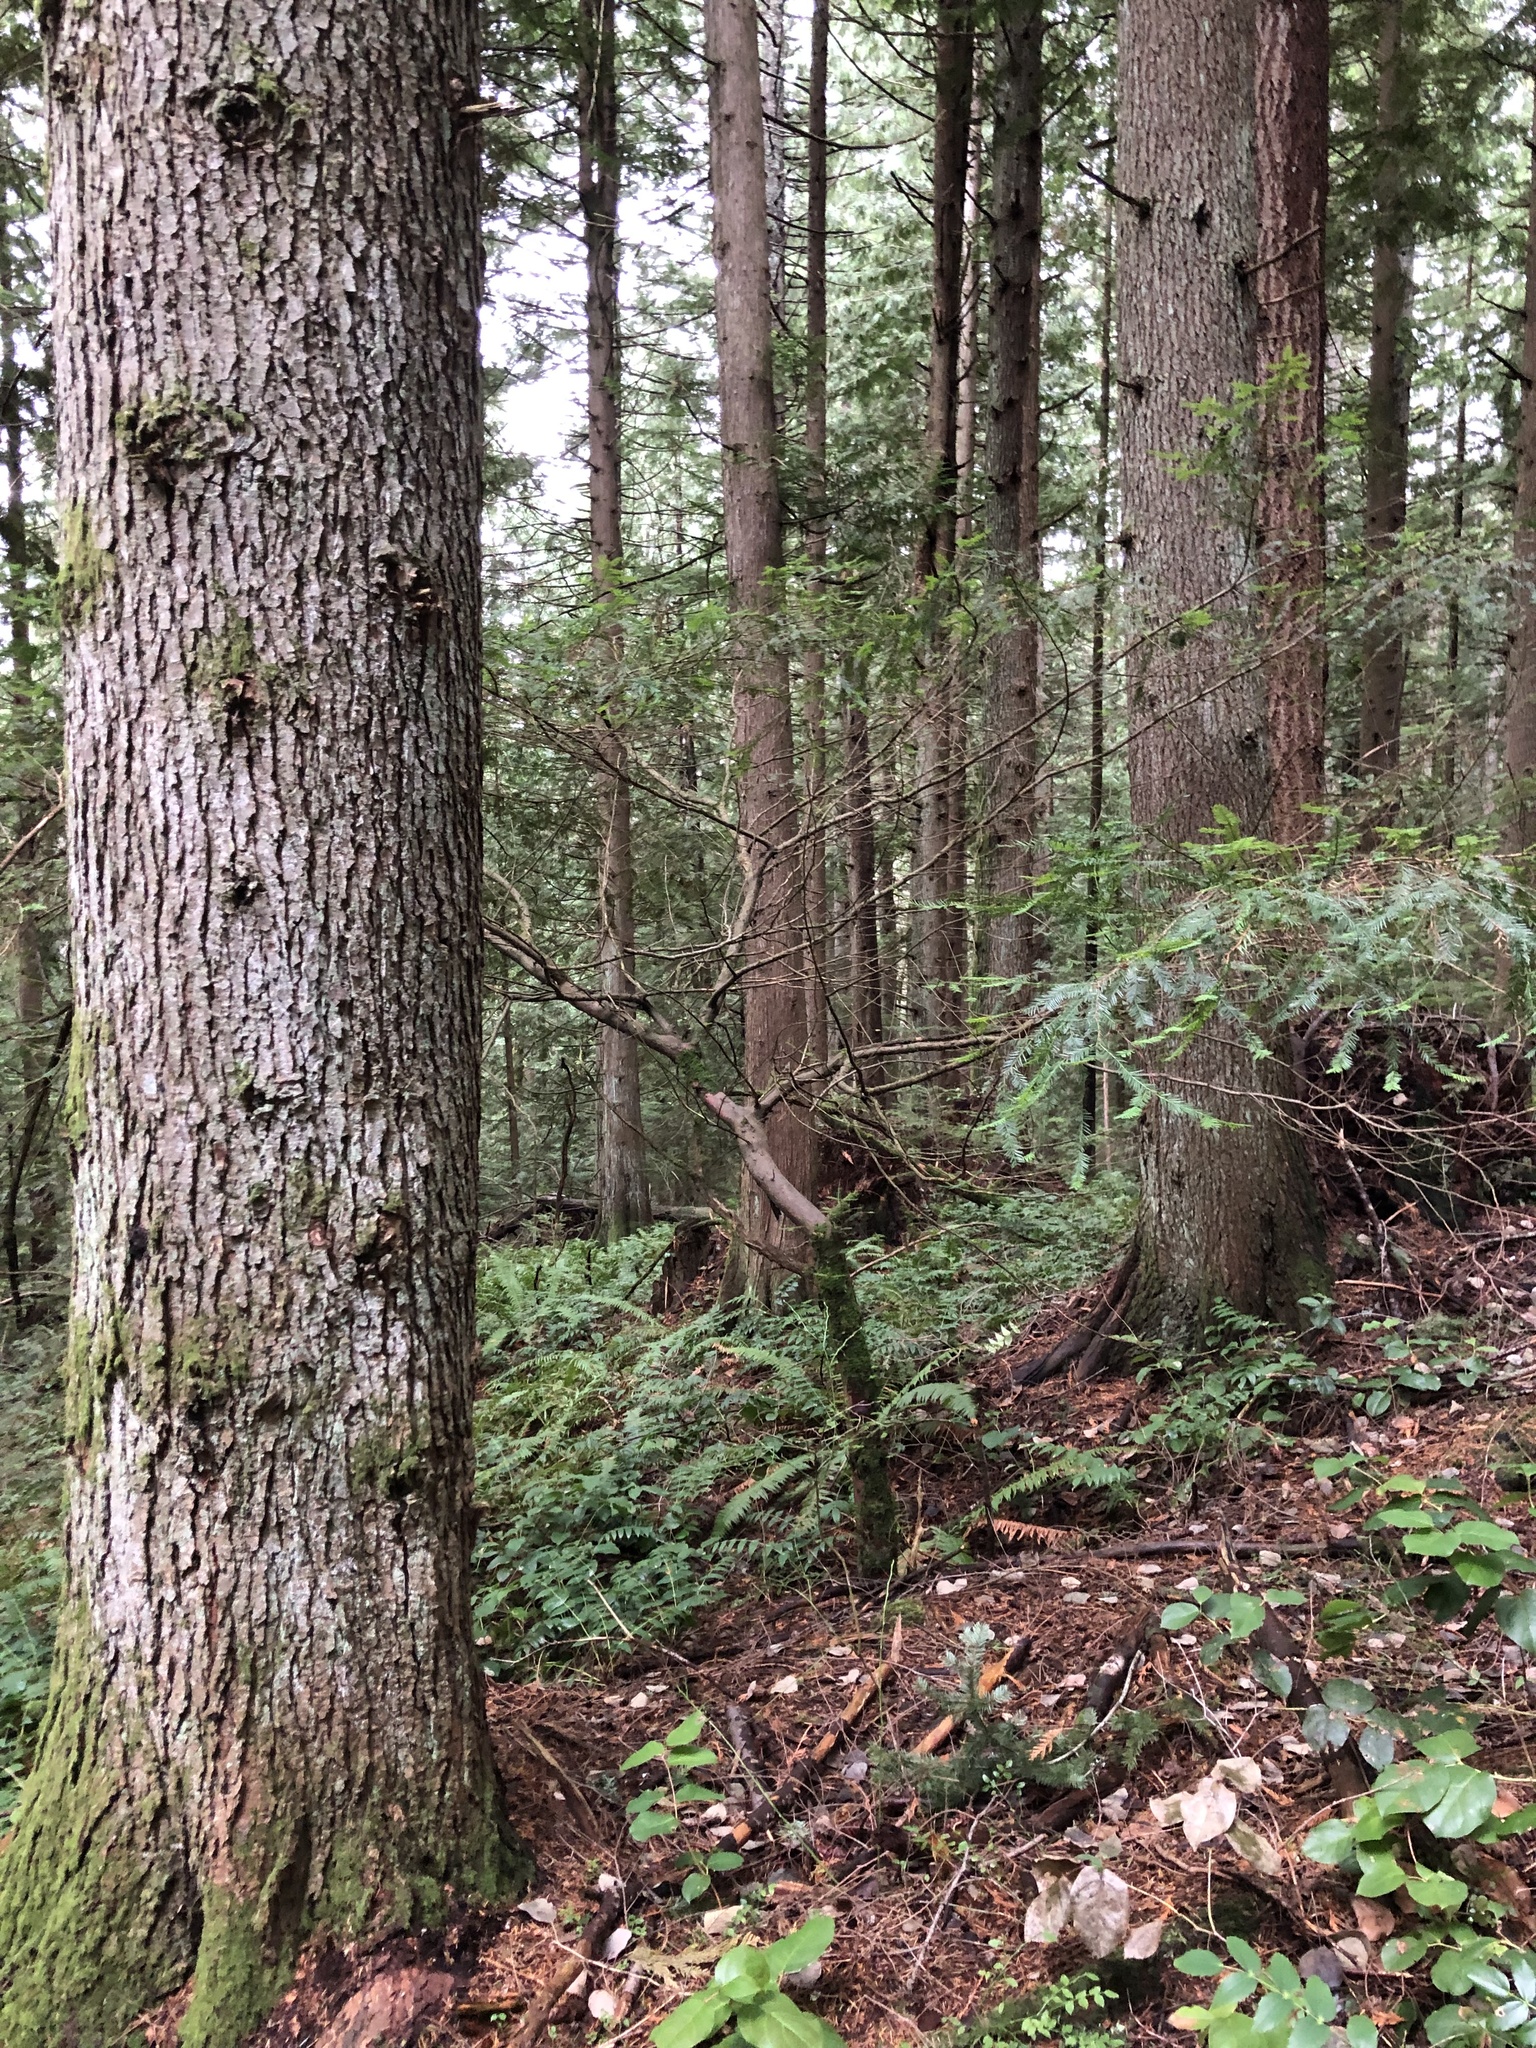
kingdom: Plantae
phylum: Tracheophyta
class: Pinopsida
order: Pinales
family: Taxaceae
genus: Taxus
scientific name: Taxus brevifolia
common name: Pacific yew
